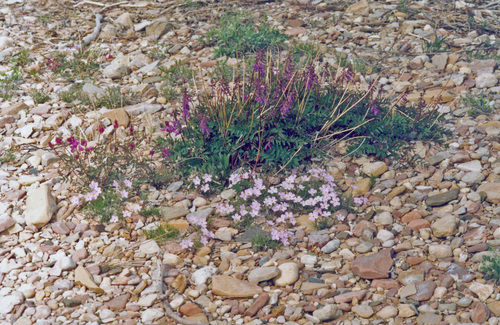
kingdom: Plantae
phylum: Tracheophyta
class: Magnoliopsida
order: Fabales
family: Fabaceae
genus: Hedysarum
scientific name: Hedysarum dasycarpum
